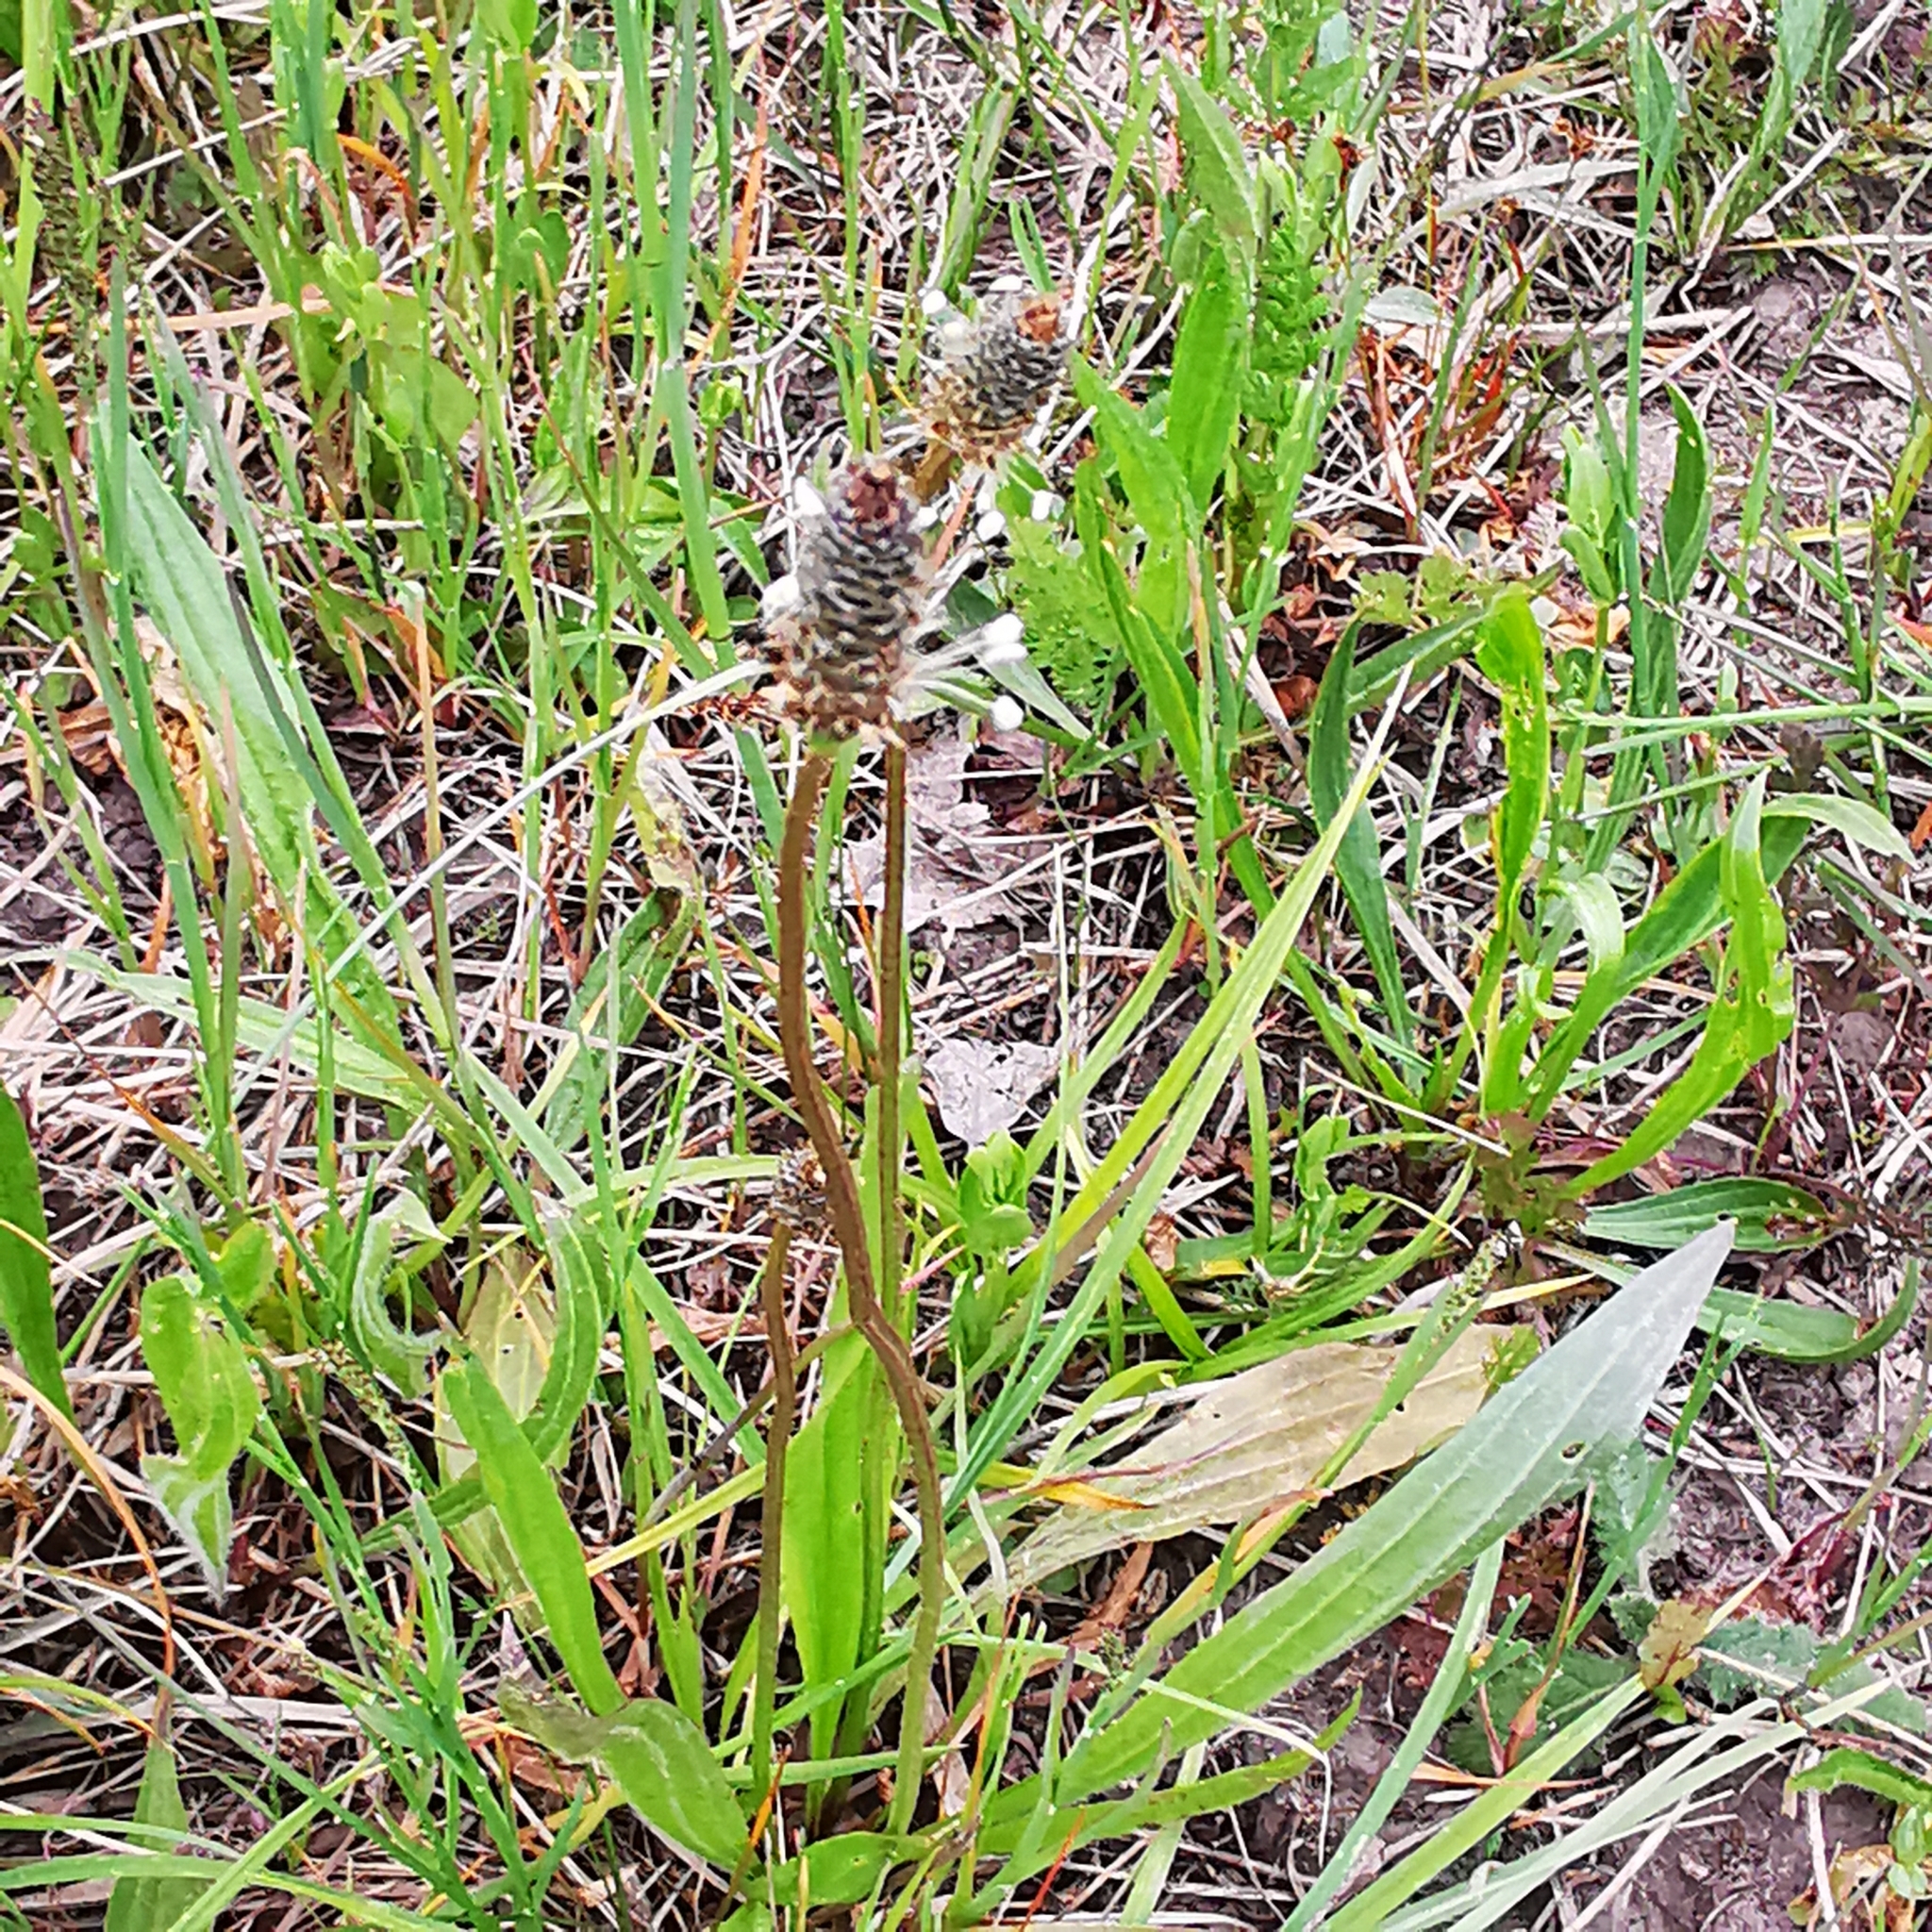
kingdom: Plantae
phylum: Tracheophyta
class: Magnoliopsida
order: Lamiales
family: Plantaginaceae
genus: Plantago
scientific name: Plantago lanceolata
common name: Ribwort plantain
